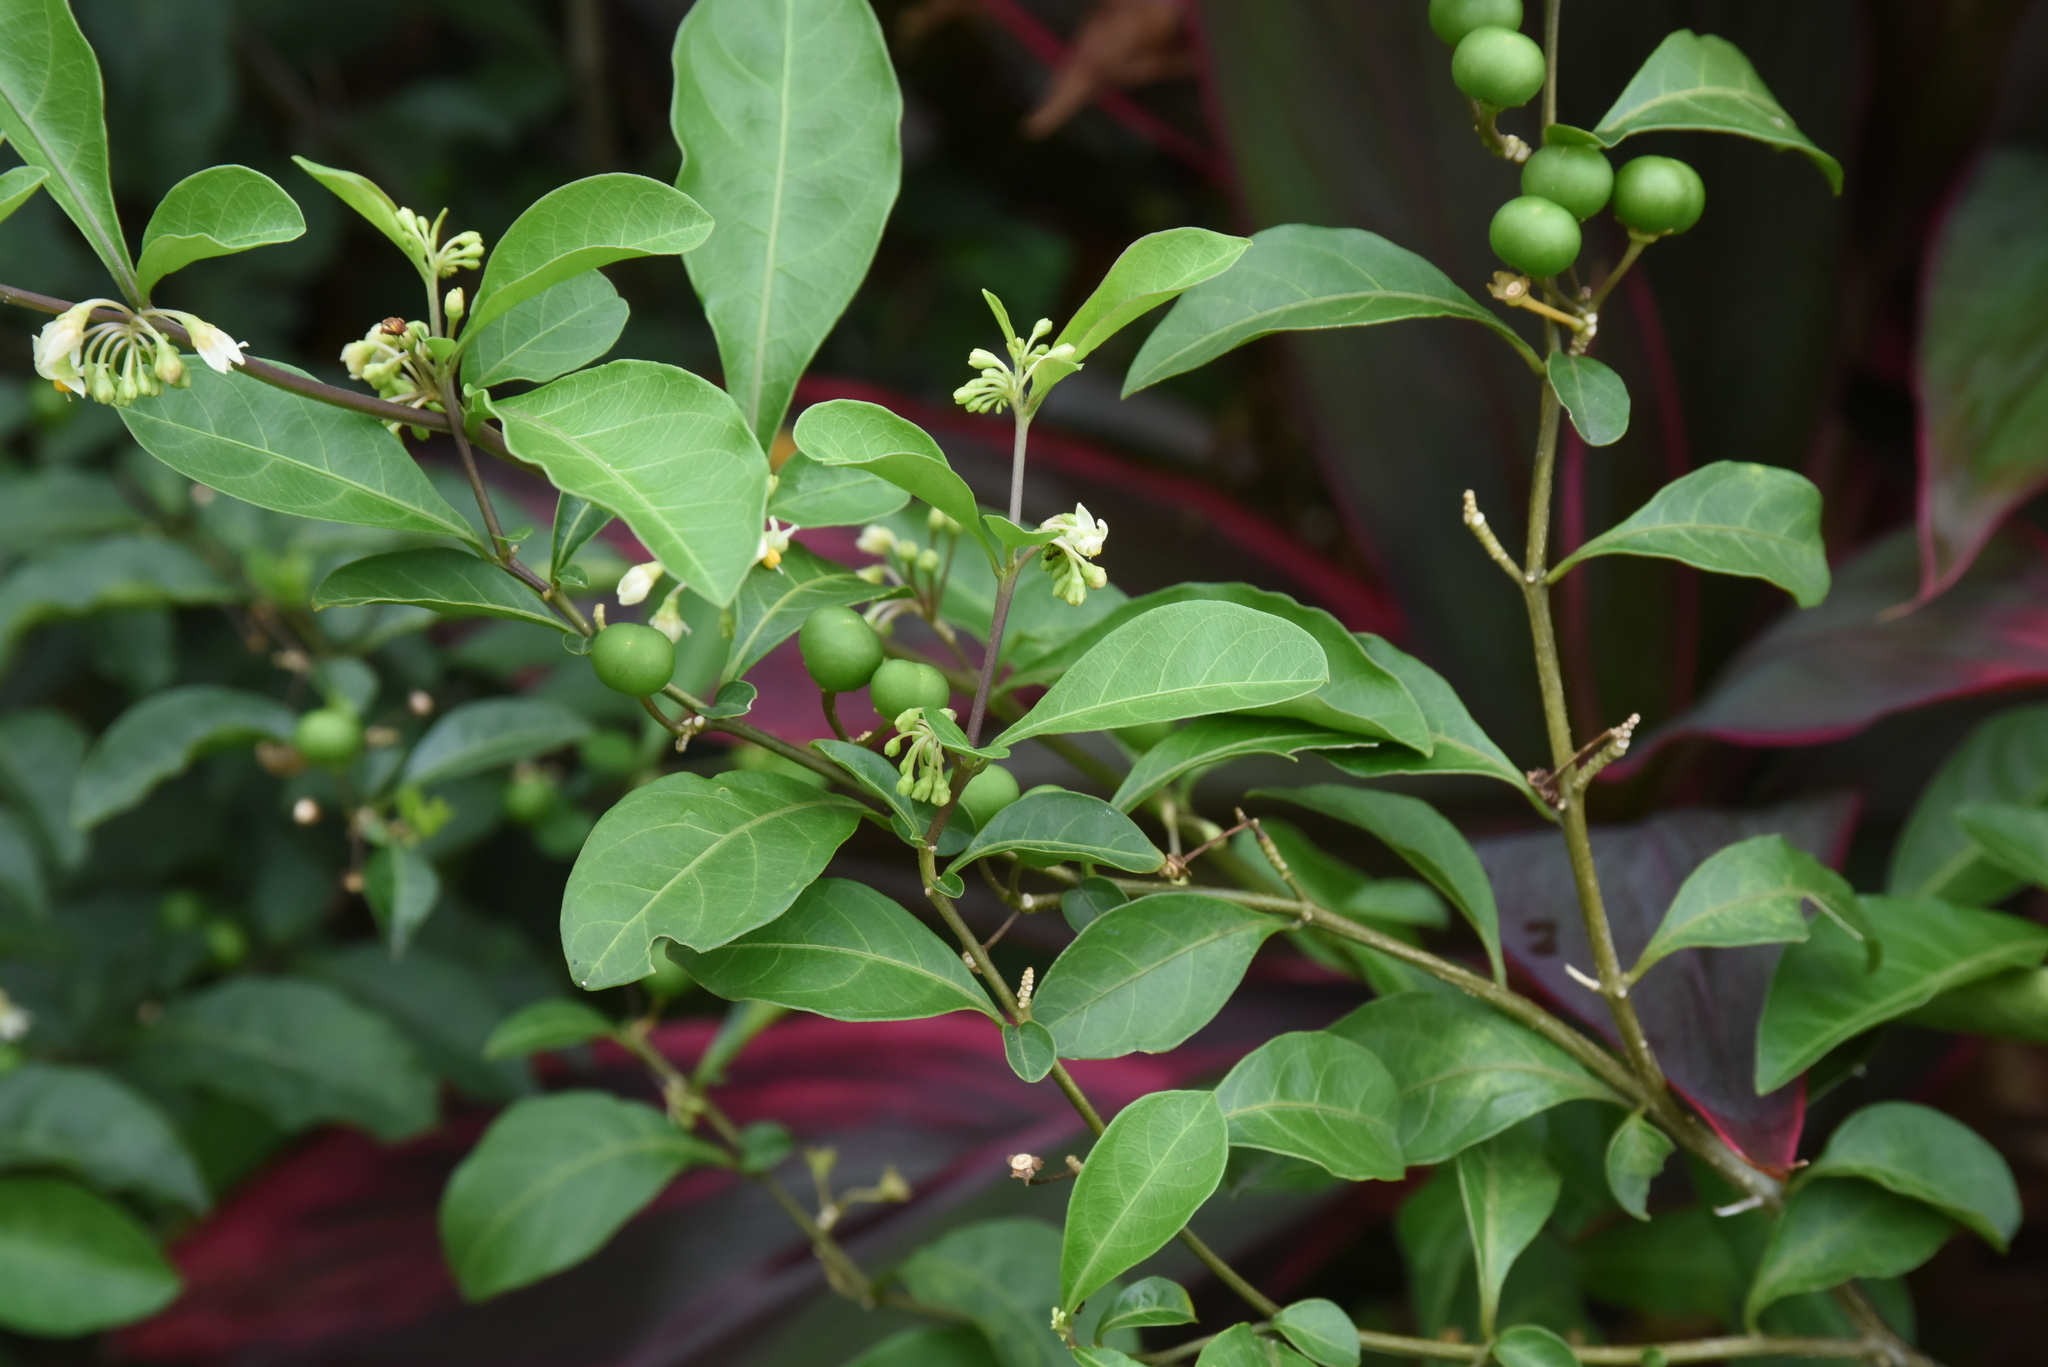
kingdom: Plantae
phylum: Tracheophyta
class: Magnoliopsida
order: Solanales
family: Solanaceae
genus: Solanum
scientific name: Solanum diphyllum
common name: Twoleaf nightshade
